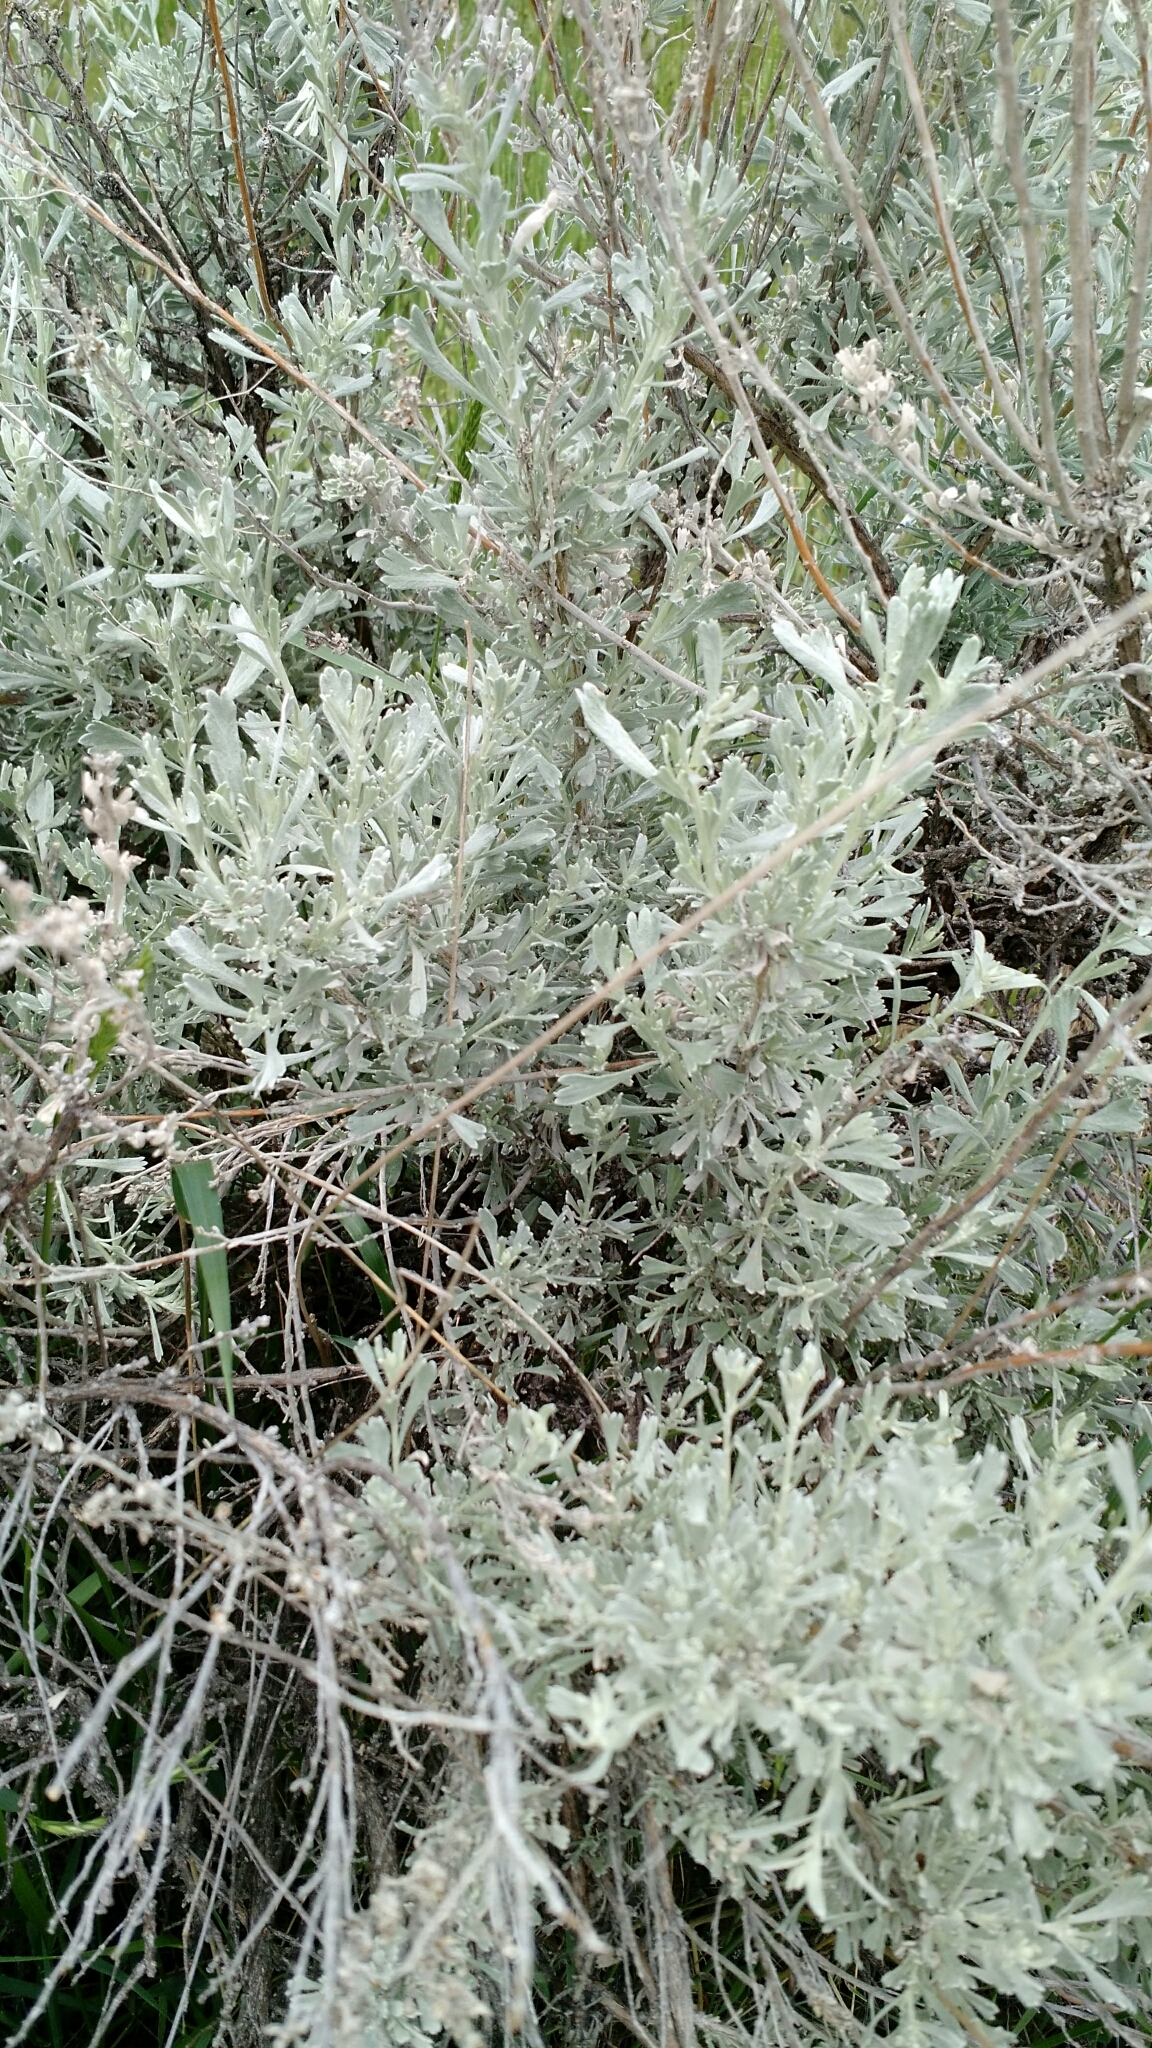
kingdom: Plantae
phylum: Tracheophyta
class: Magnoliopsida
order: Asterales
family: Asteraceae
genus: Artemisia
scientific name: Artemisia tridentata
